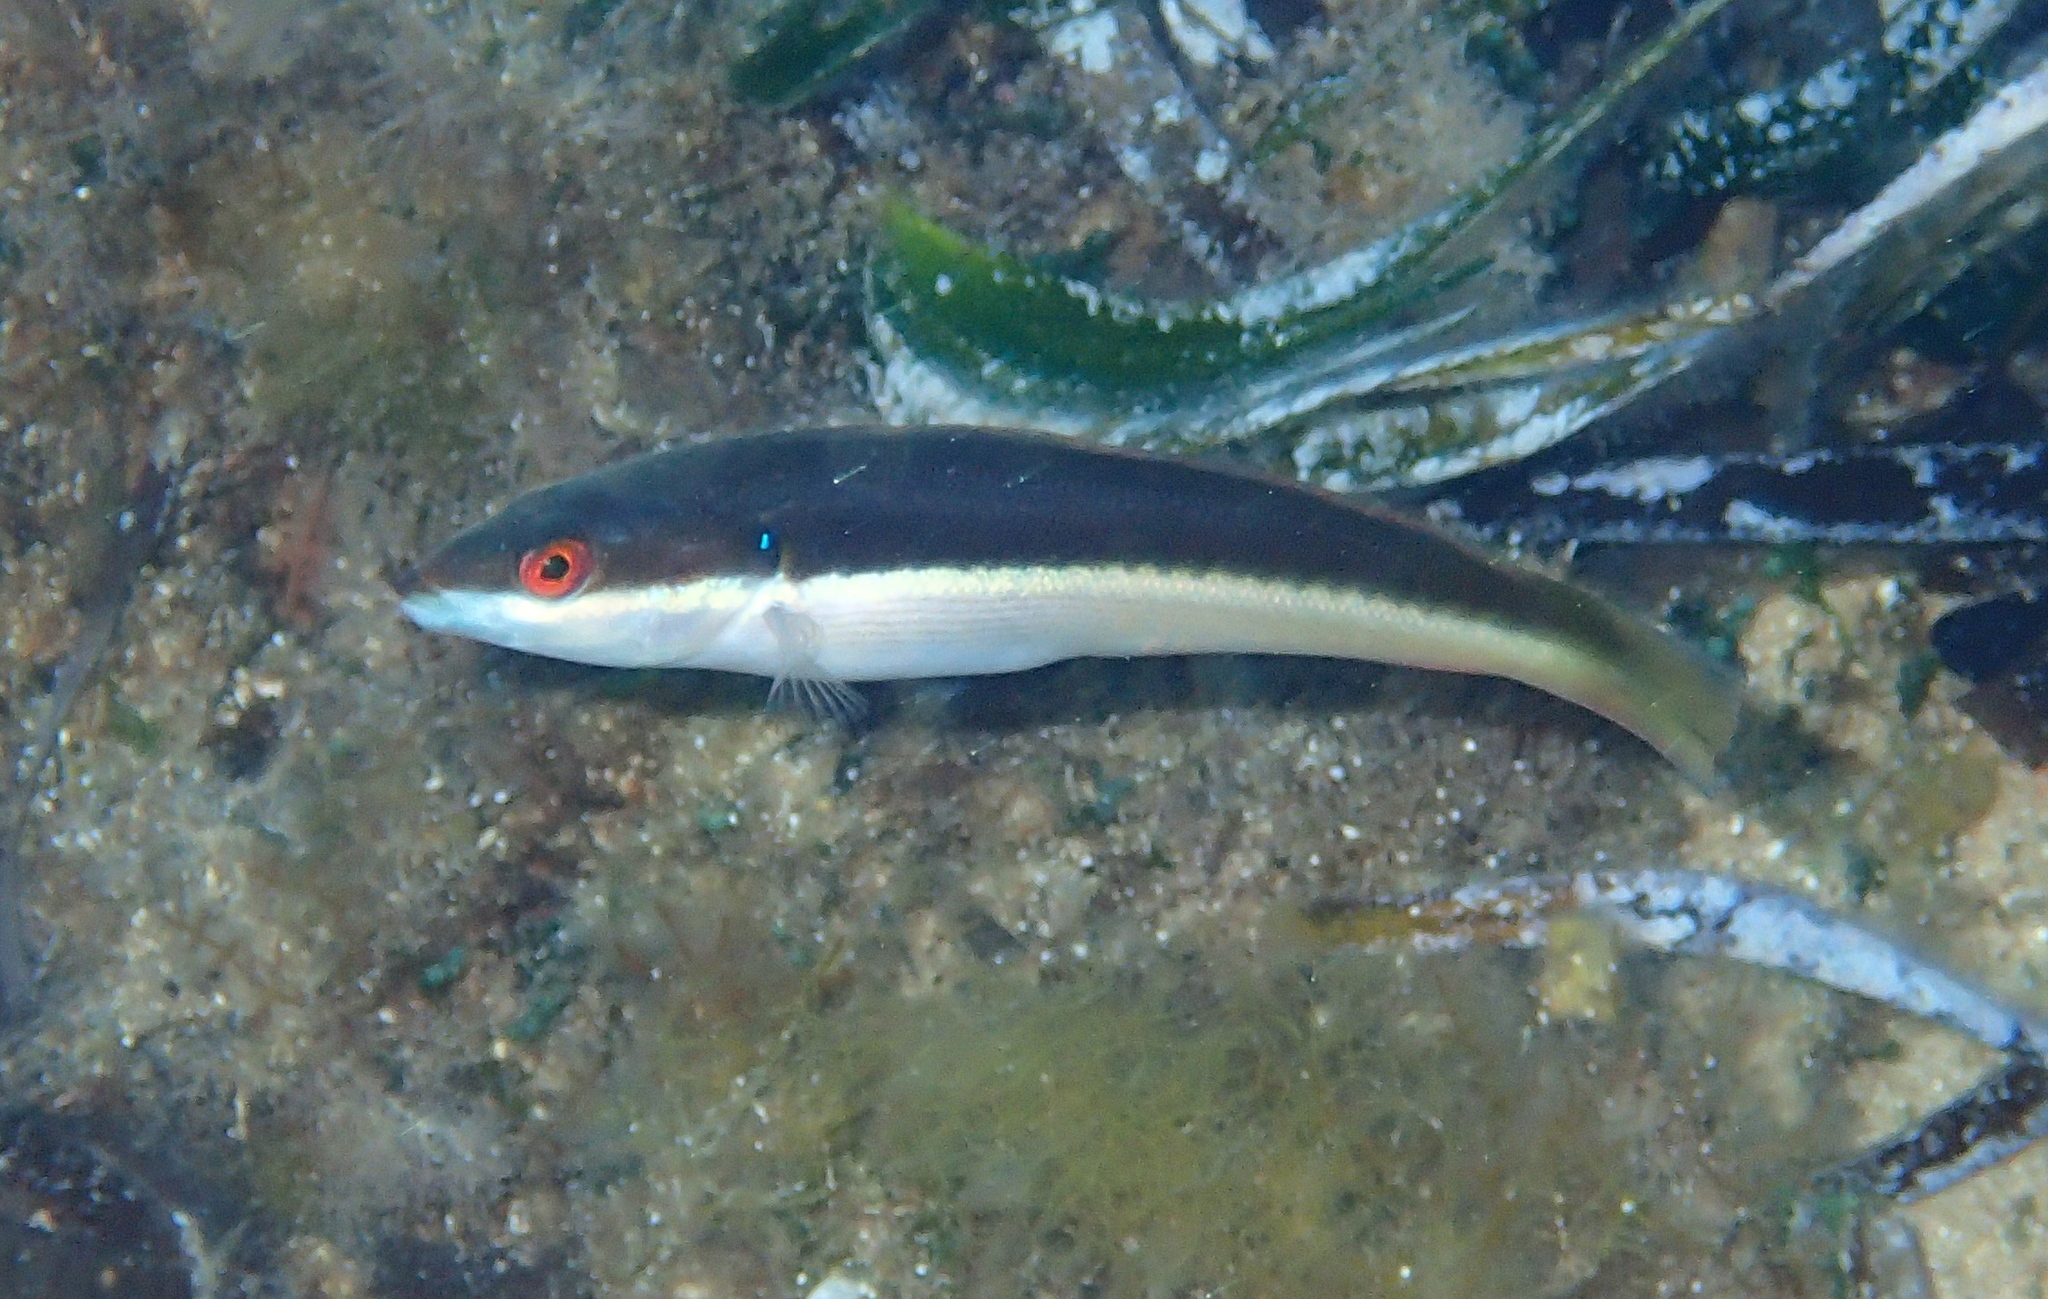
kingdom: Animalia
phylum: Chordata
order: Perciformes
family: Labridae
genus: Coris
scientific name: Coris julis
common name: Rainbow wrasse
